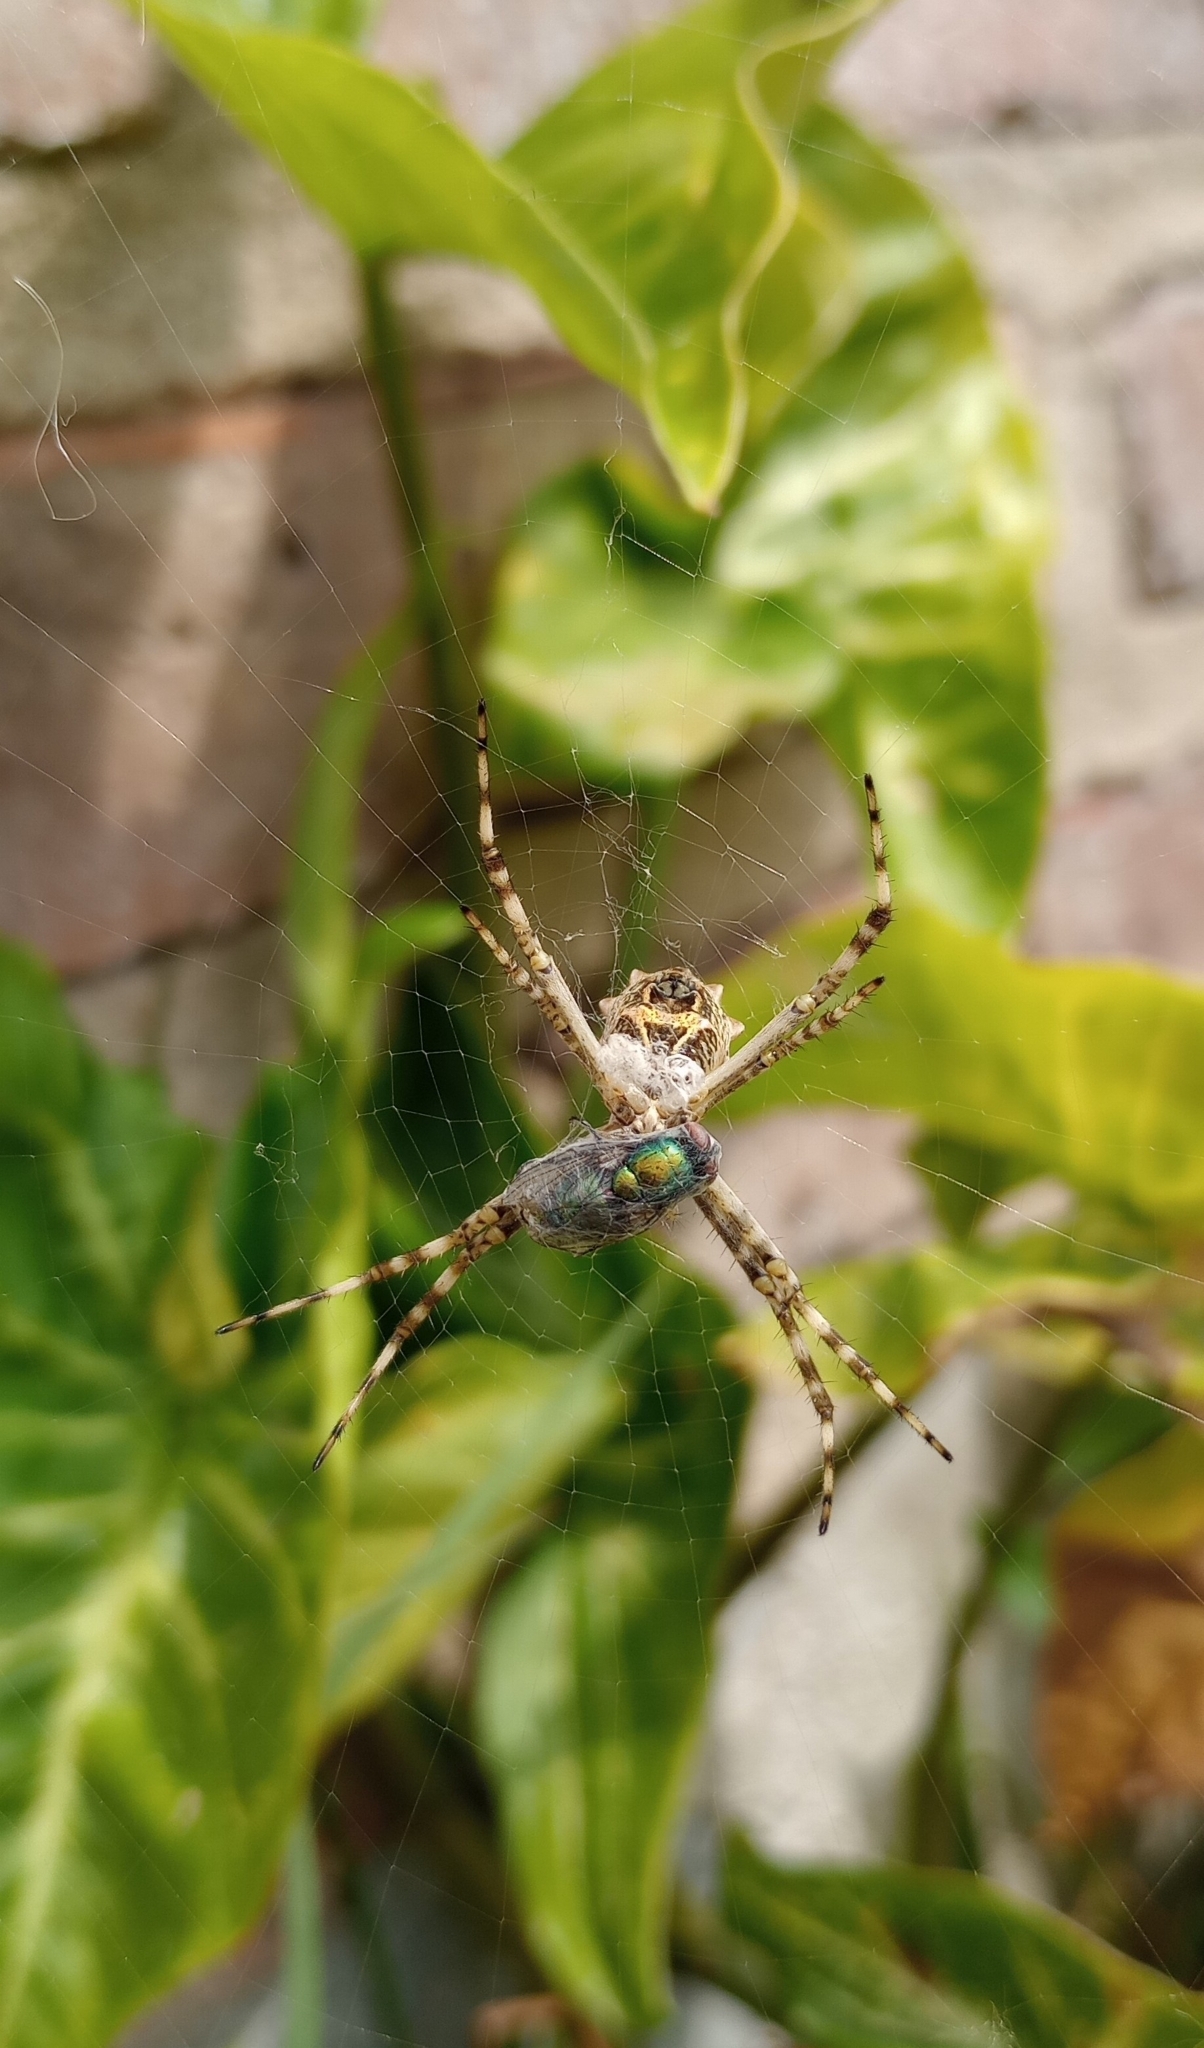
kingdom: Animalia
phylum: Arthropoda
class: Arachnida
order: Araneae
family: Araneidae
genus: Argiope
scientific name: Argiope argentata
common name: Orb weavers
